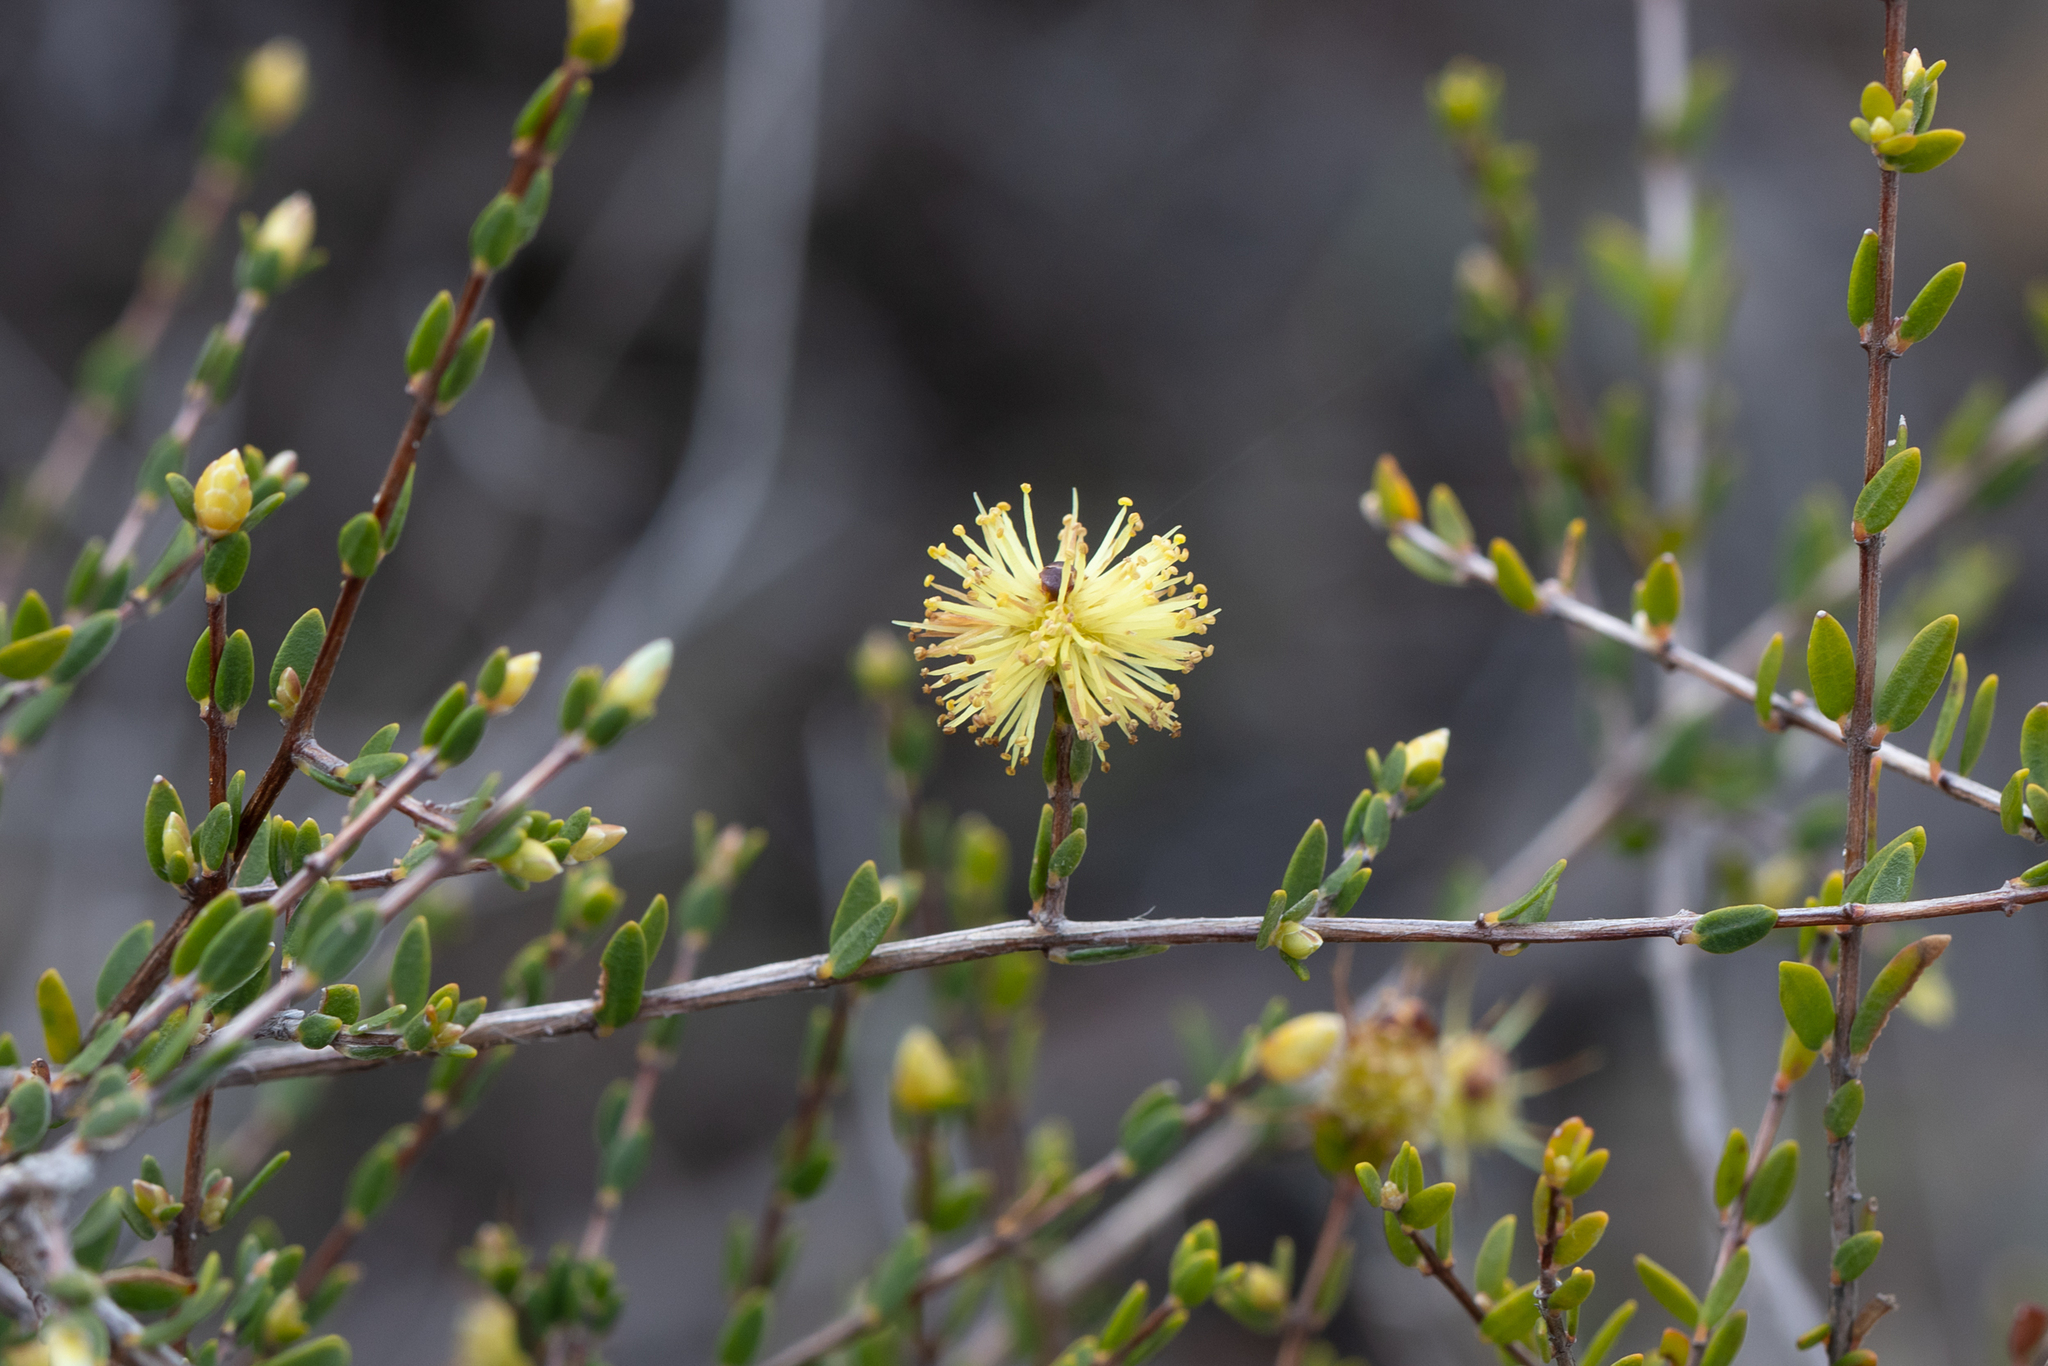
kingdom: Plantae
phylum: Tracheophyta
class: Magnoliopsida
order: Myrtales
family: Myrtaceae
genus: Melaleuca
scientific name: Melaleuca thymoides
